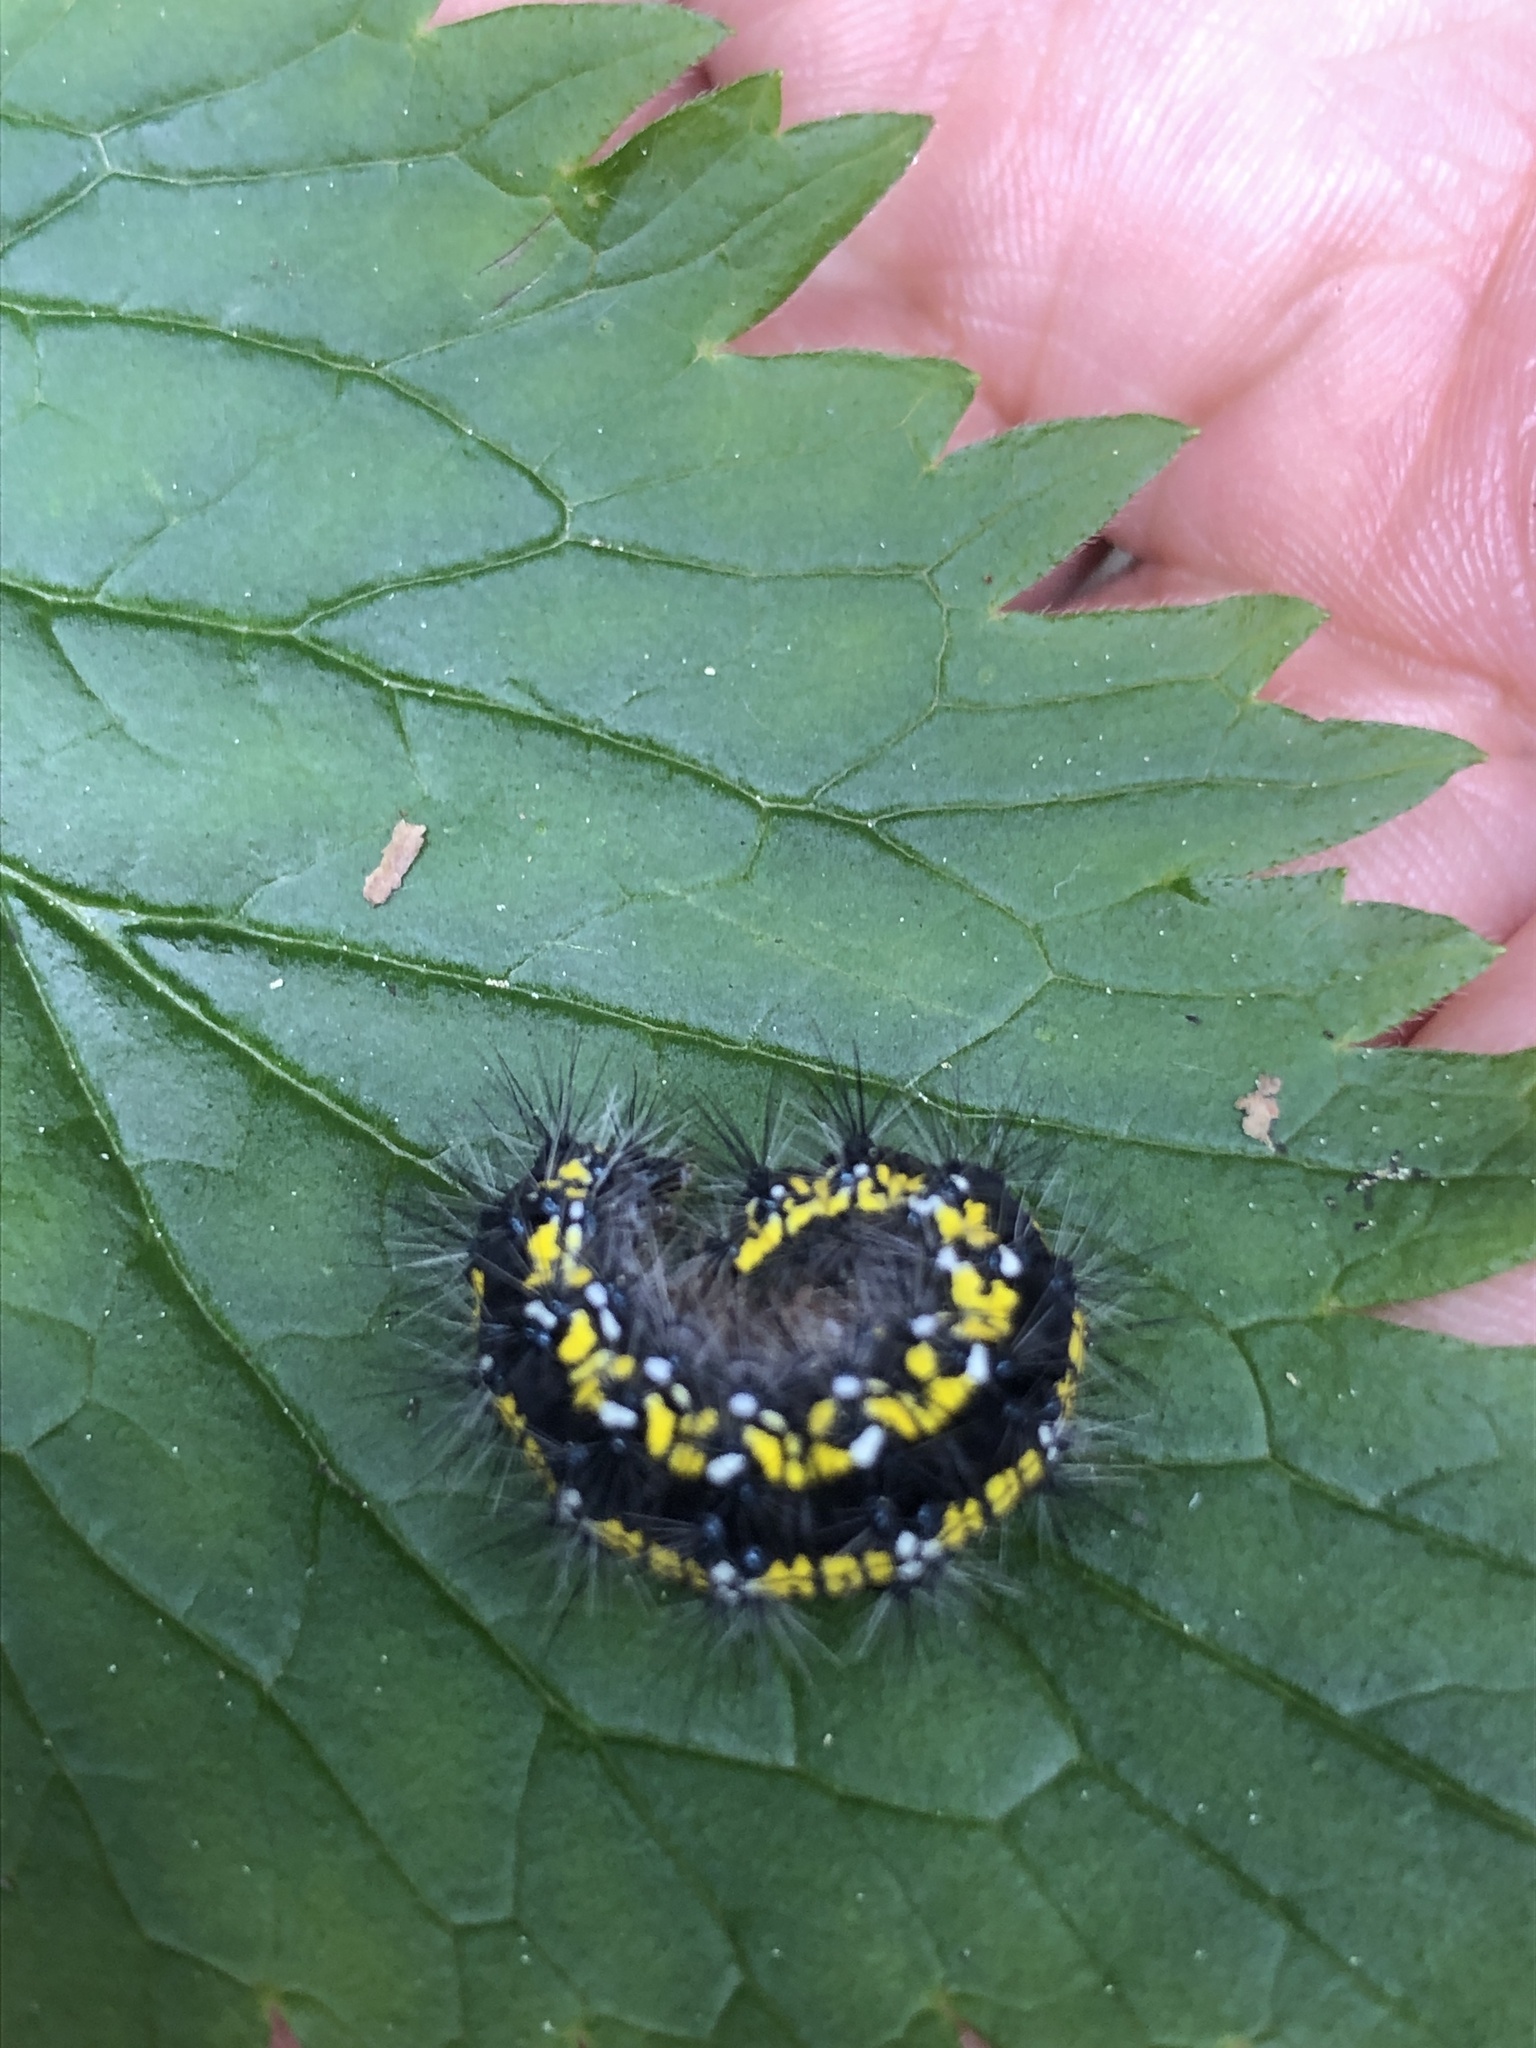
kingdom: Animalia
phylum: Arthropoda
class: Insecta
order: Lepidoptera
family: Erebidae
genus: Callimorpha
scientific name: Callimorpha dominula
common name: Scarlet tiger
